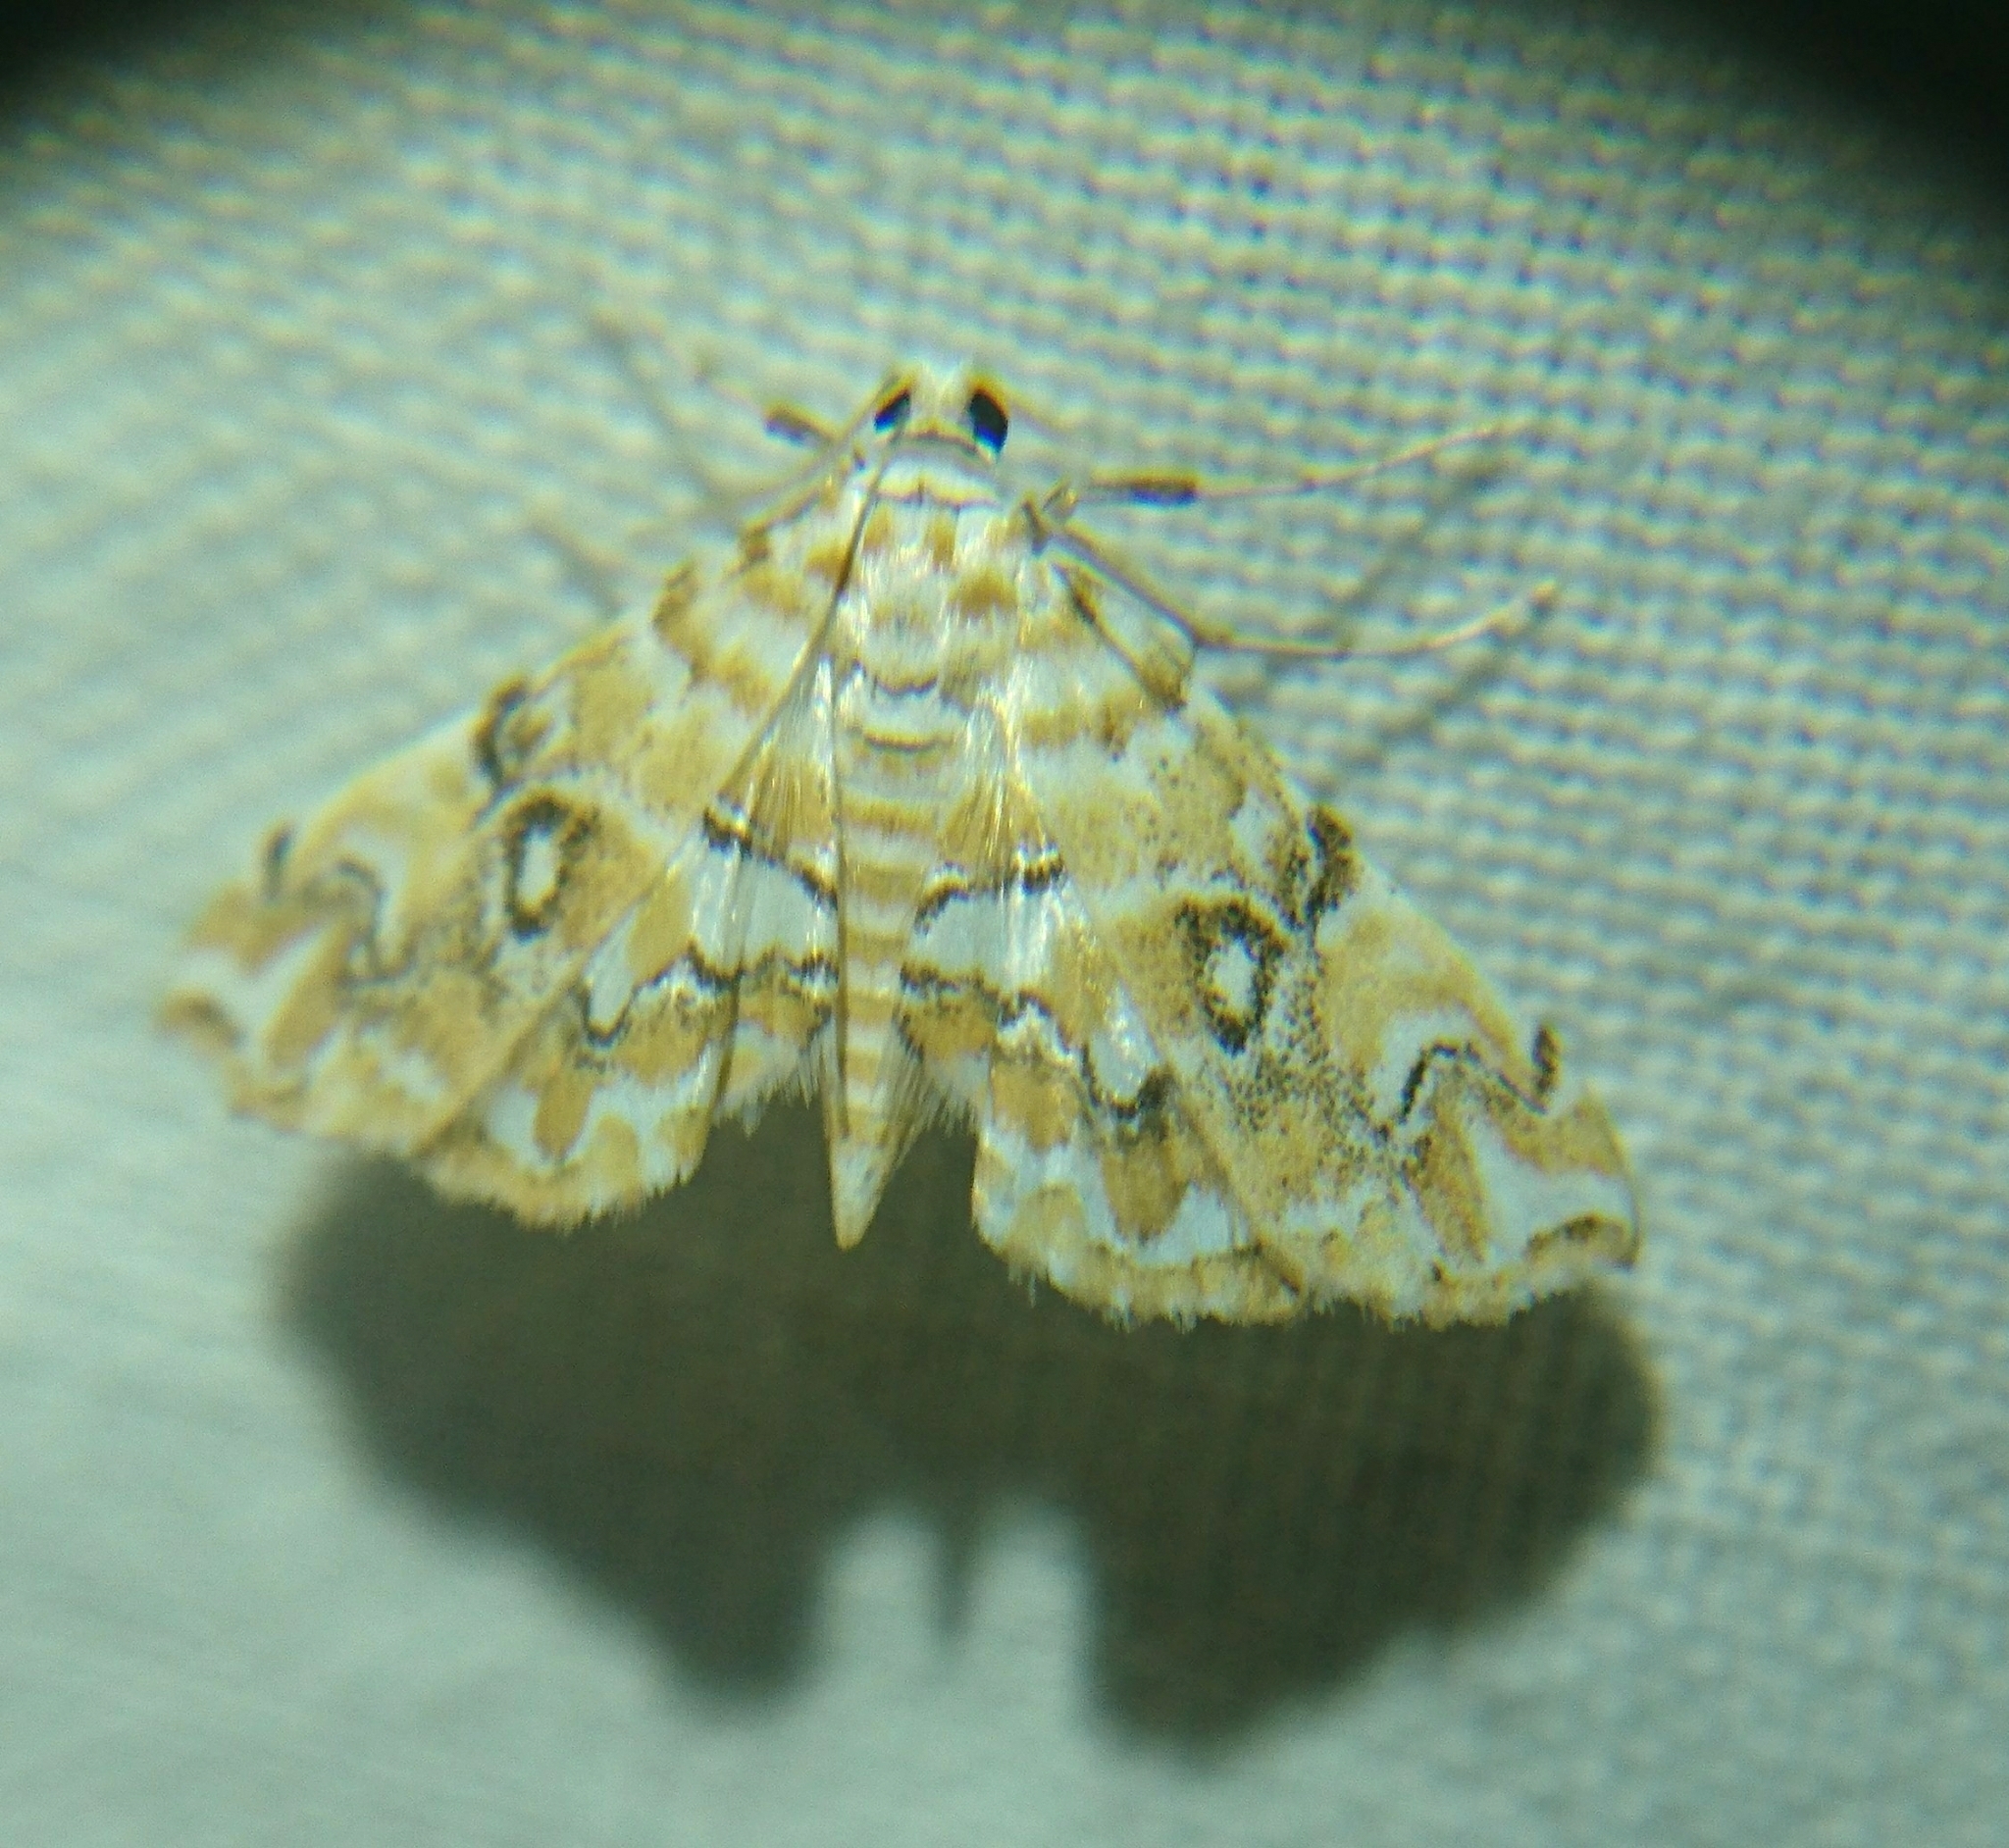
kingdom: Animalia
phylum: Arthropoda
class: Insecta
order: Lepidoptera
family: Crambidae
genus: Elophila
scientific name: Elophila icciusalis
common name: Pondside pyralid moth
